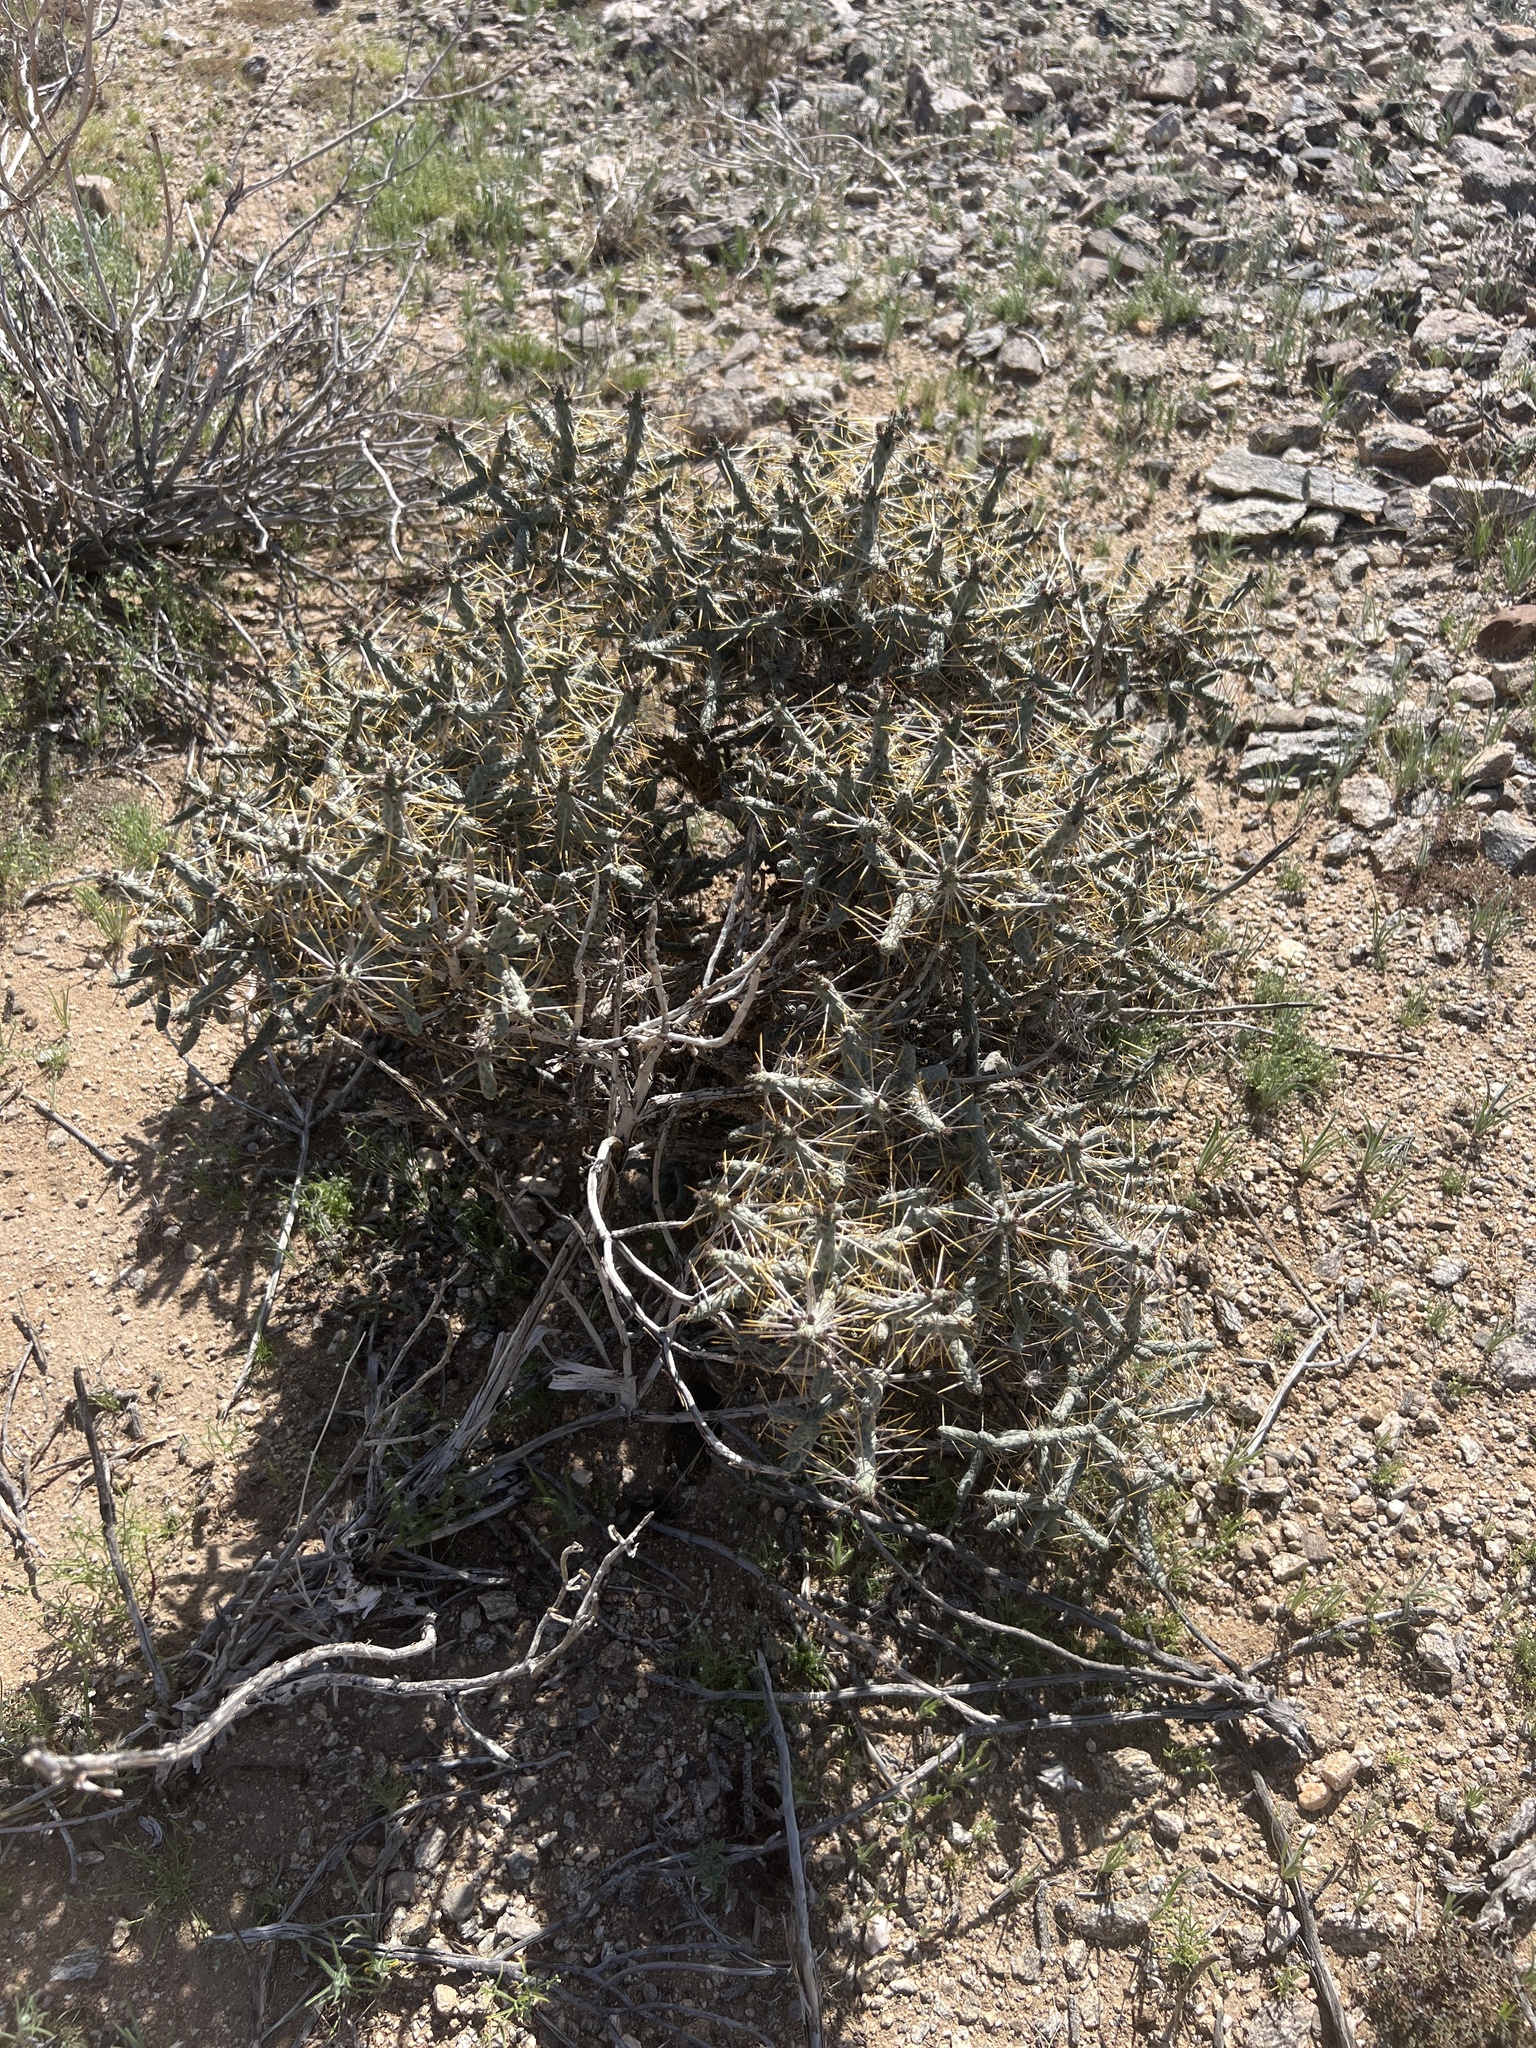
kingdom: Plantae
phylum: Tracheophyta
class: Magnoliopsida
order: Caryophyllales
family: Cactaceae
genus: Cylindropuntia
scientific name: Cylindropuntia ramosissima
